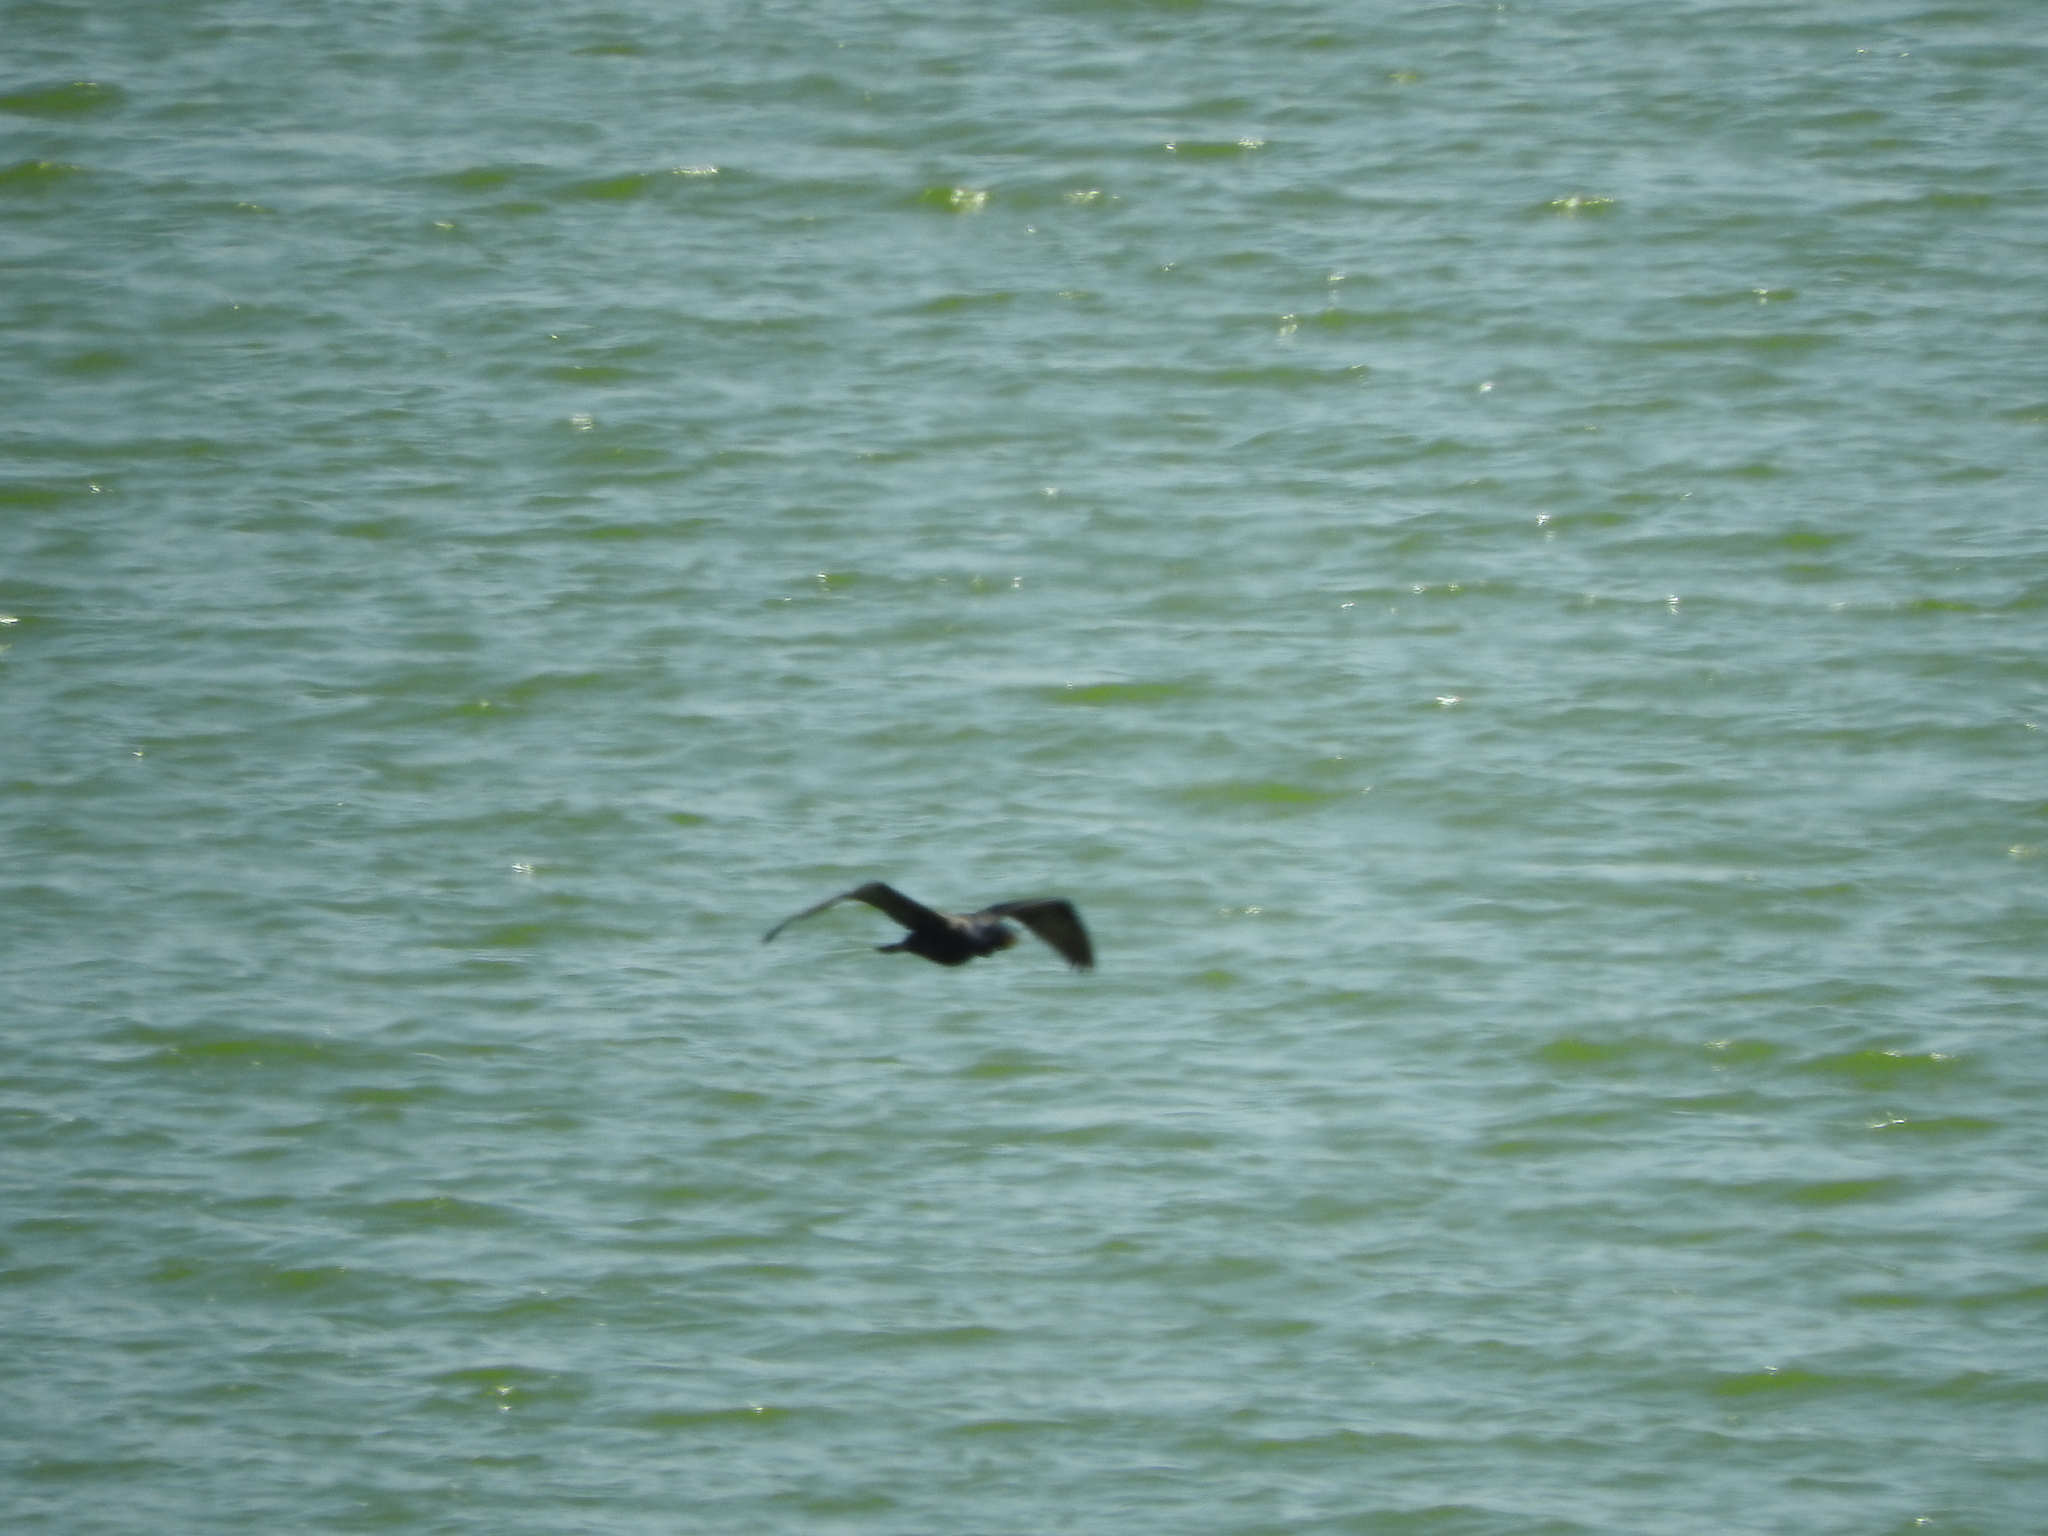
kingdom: Animalia
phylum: Chordata
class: Aves
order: Suliformes
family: Phalacrocoracidae
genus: Phalacrocorax
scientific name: Phalacrocorax brasilianus
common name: Neotropic cormorant
